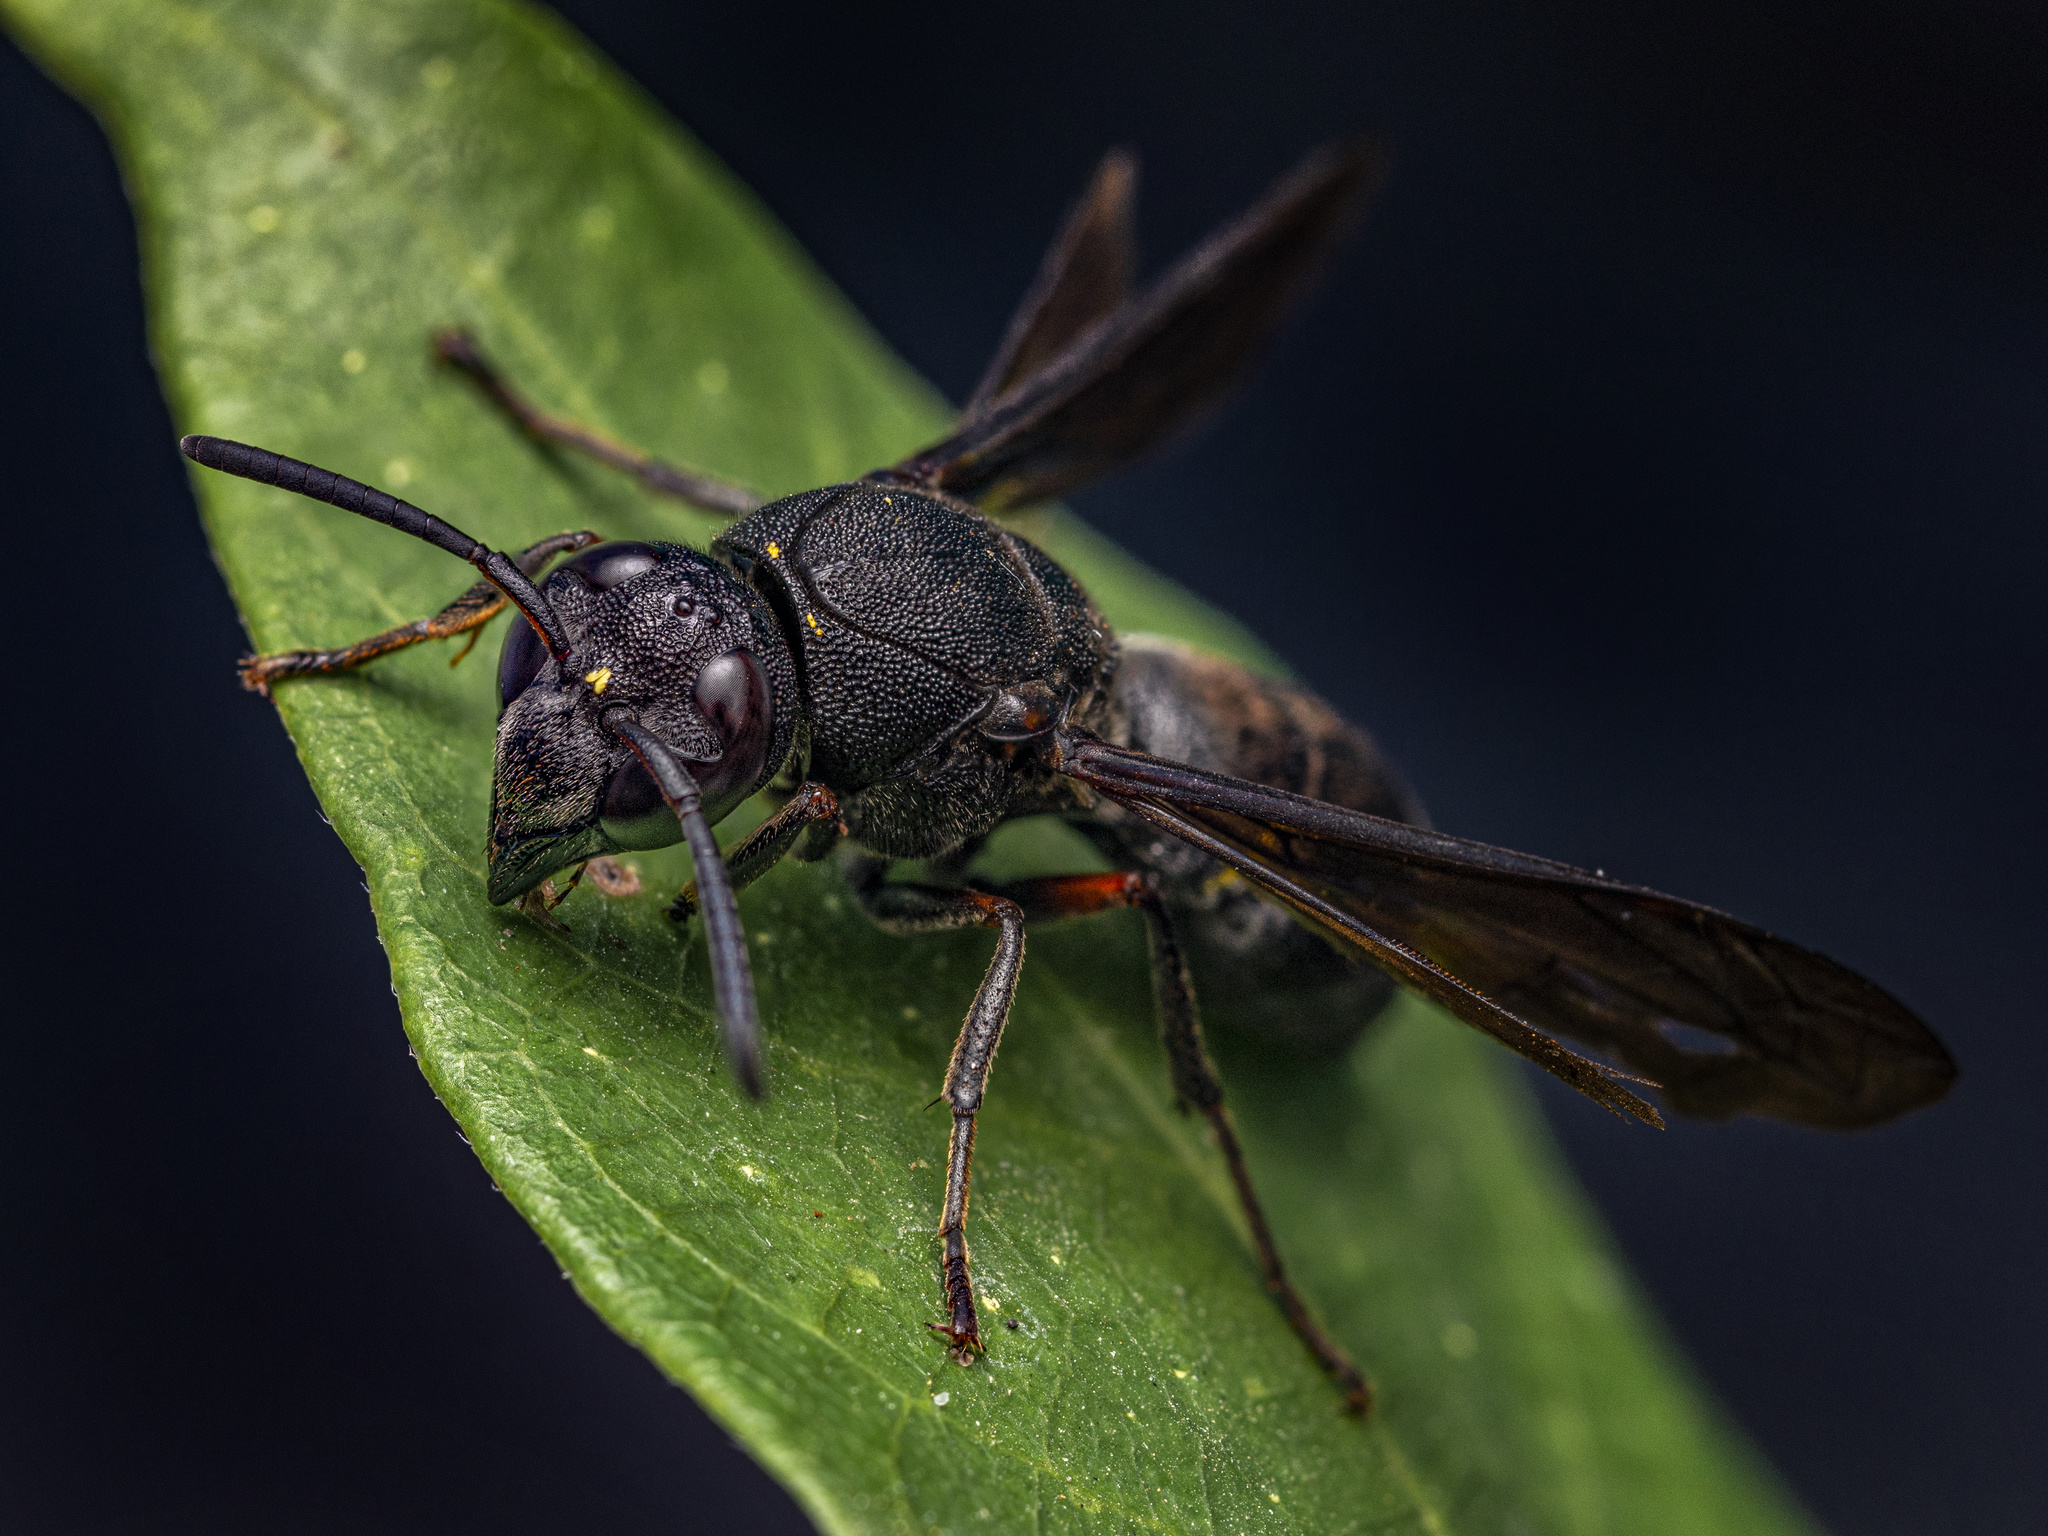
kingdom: Animalia
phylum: Arthropoda
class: Insecta
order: Hymenoptera
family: Eumenidae
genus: Anterhynchium
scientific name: Anterhynchium flavomarginatum
